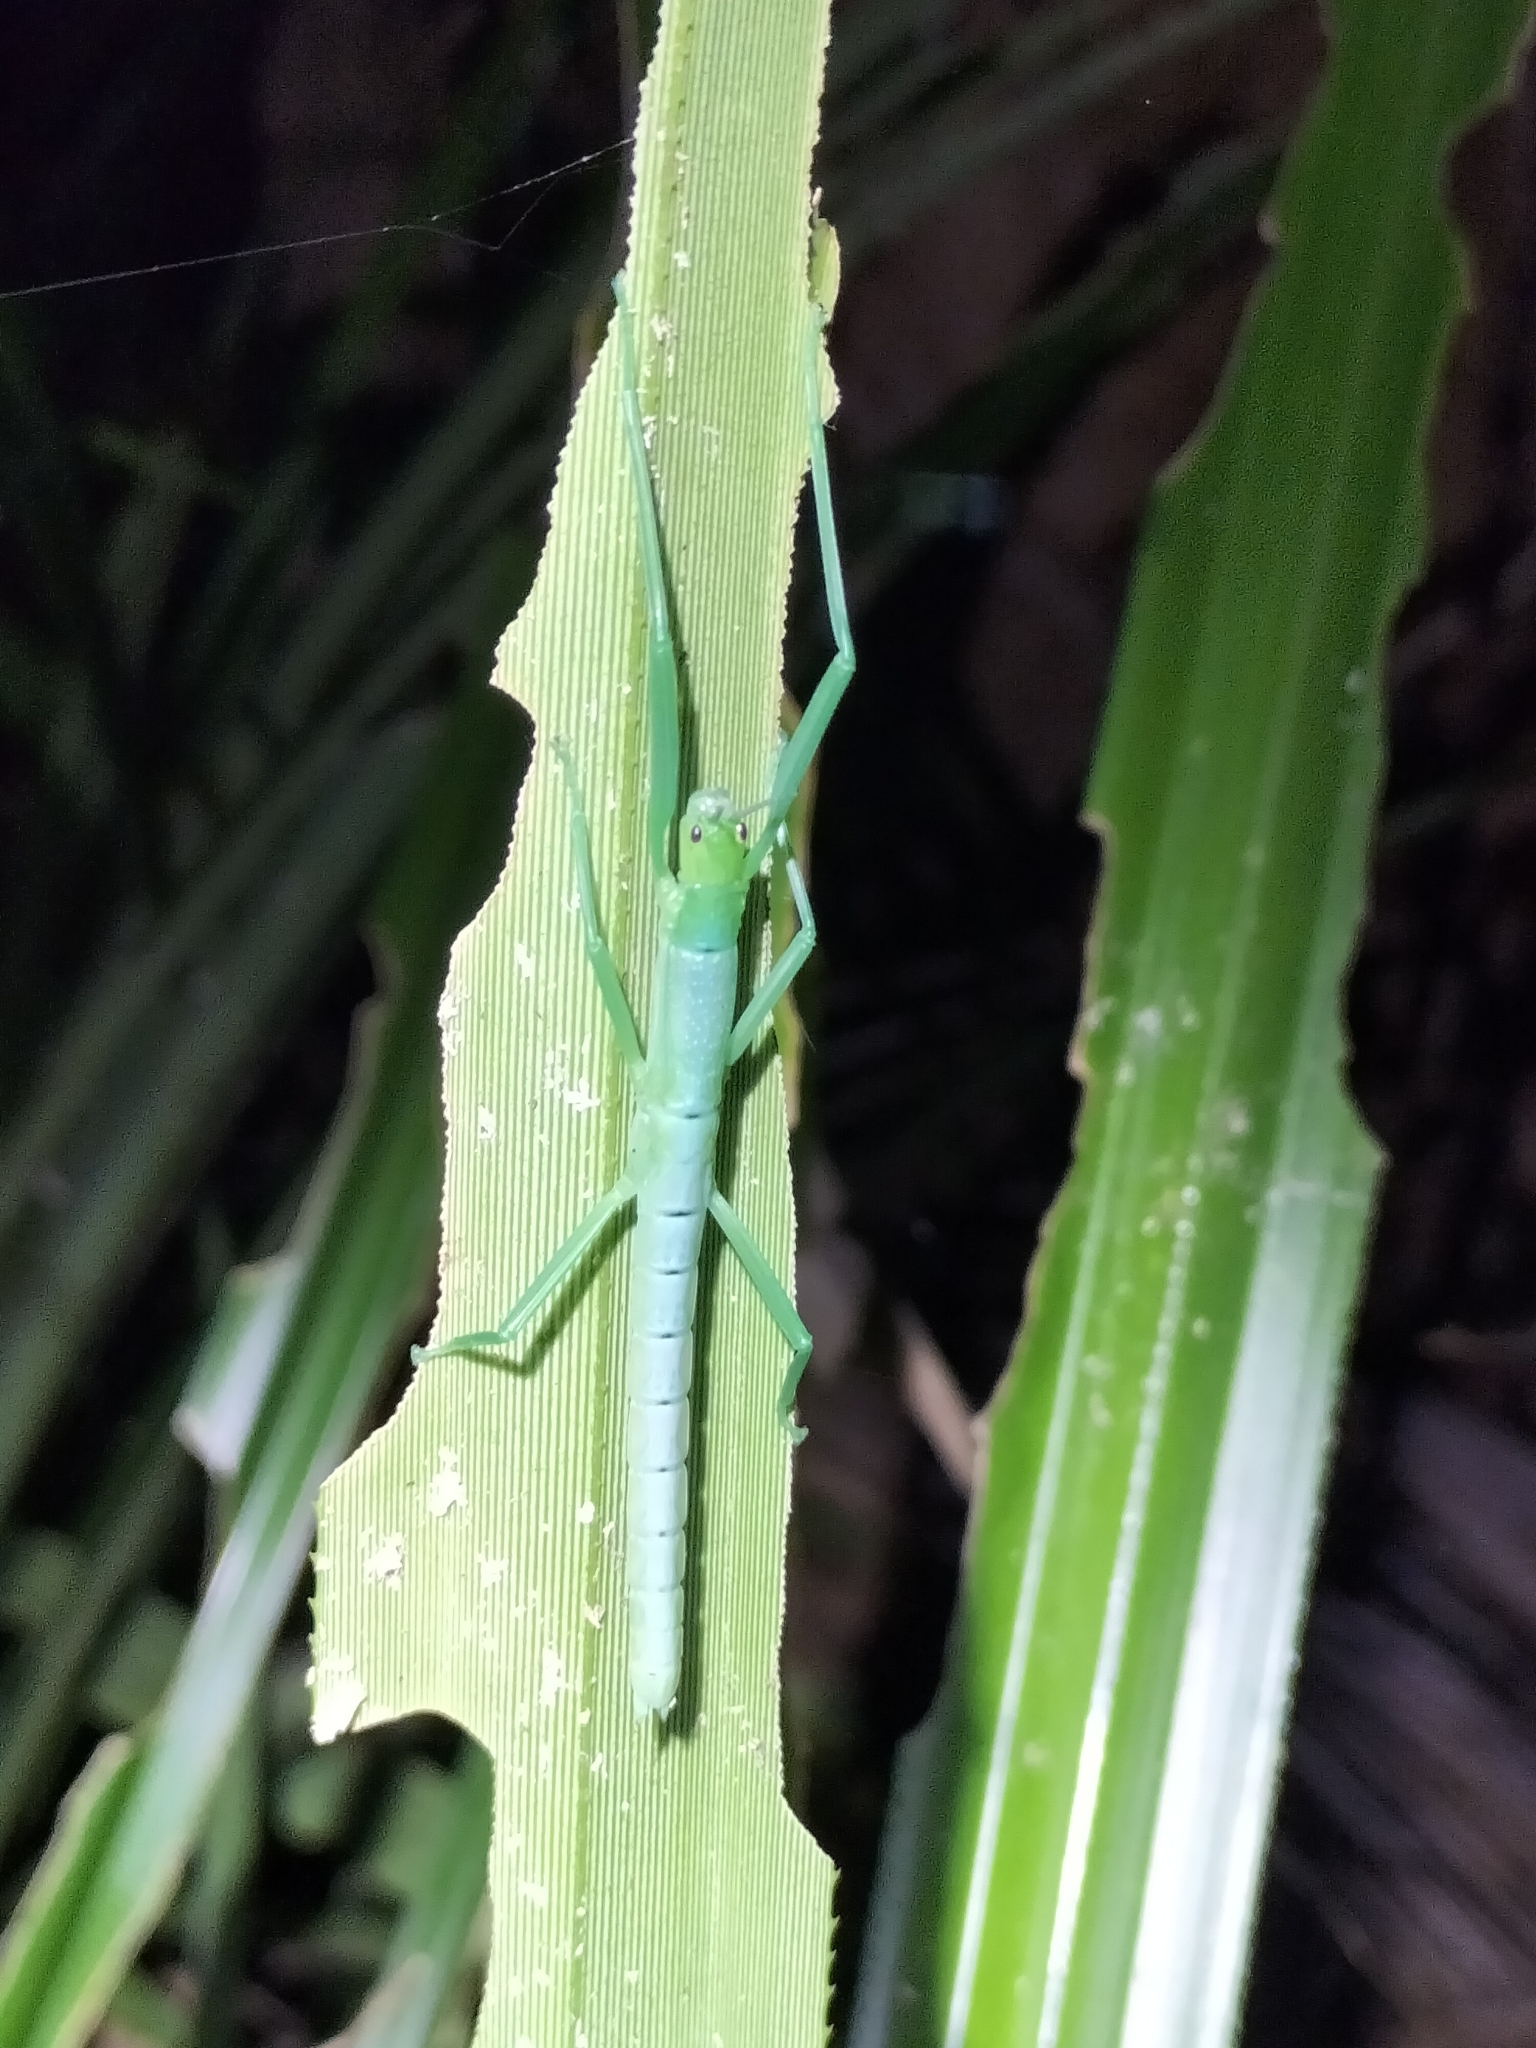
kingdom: Animalia
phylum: Arthropoda
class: Insecta
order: Phasmida
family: Phasmatidae
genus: Megacrania
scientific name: Megacrania batesii
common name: Peppermint stick-insect
